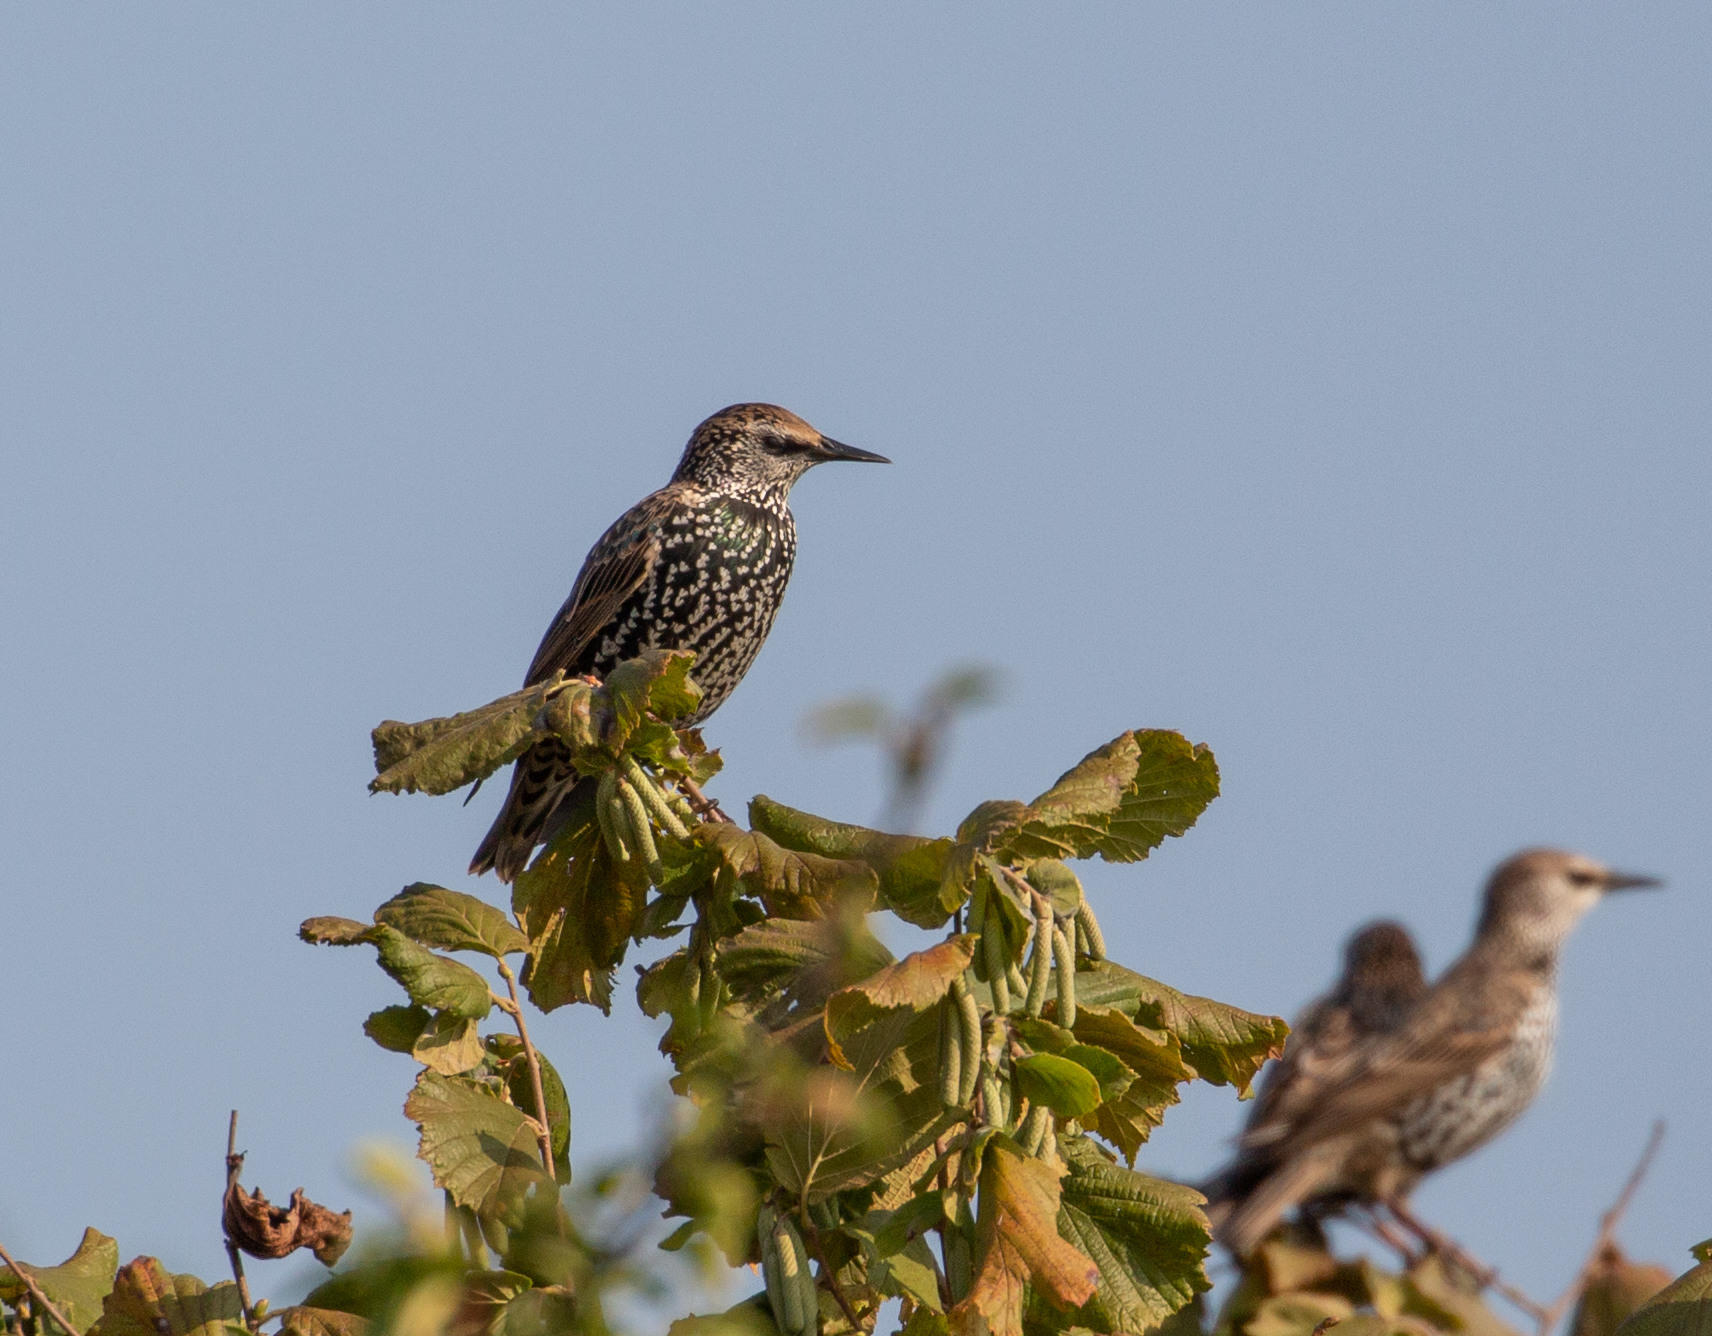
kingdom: Animalia
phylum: Chordata
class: Aves
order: Passeriformes
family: Sturnidae
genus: Sturnus
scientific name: Sturnus vulgaris
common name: Common starling
